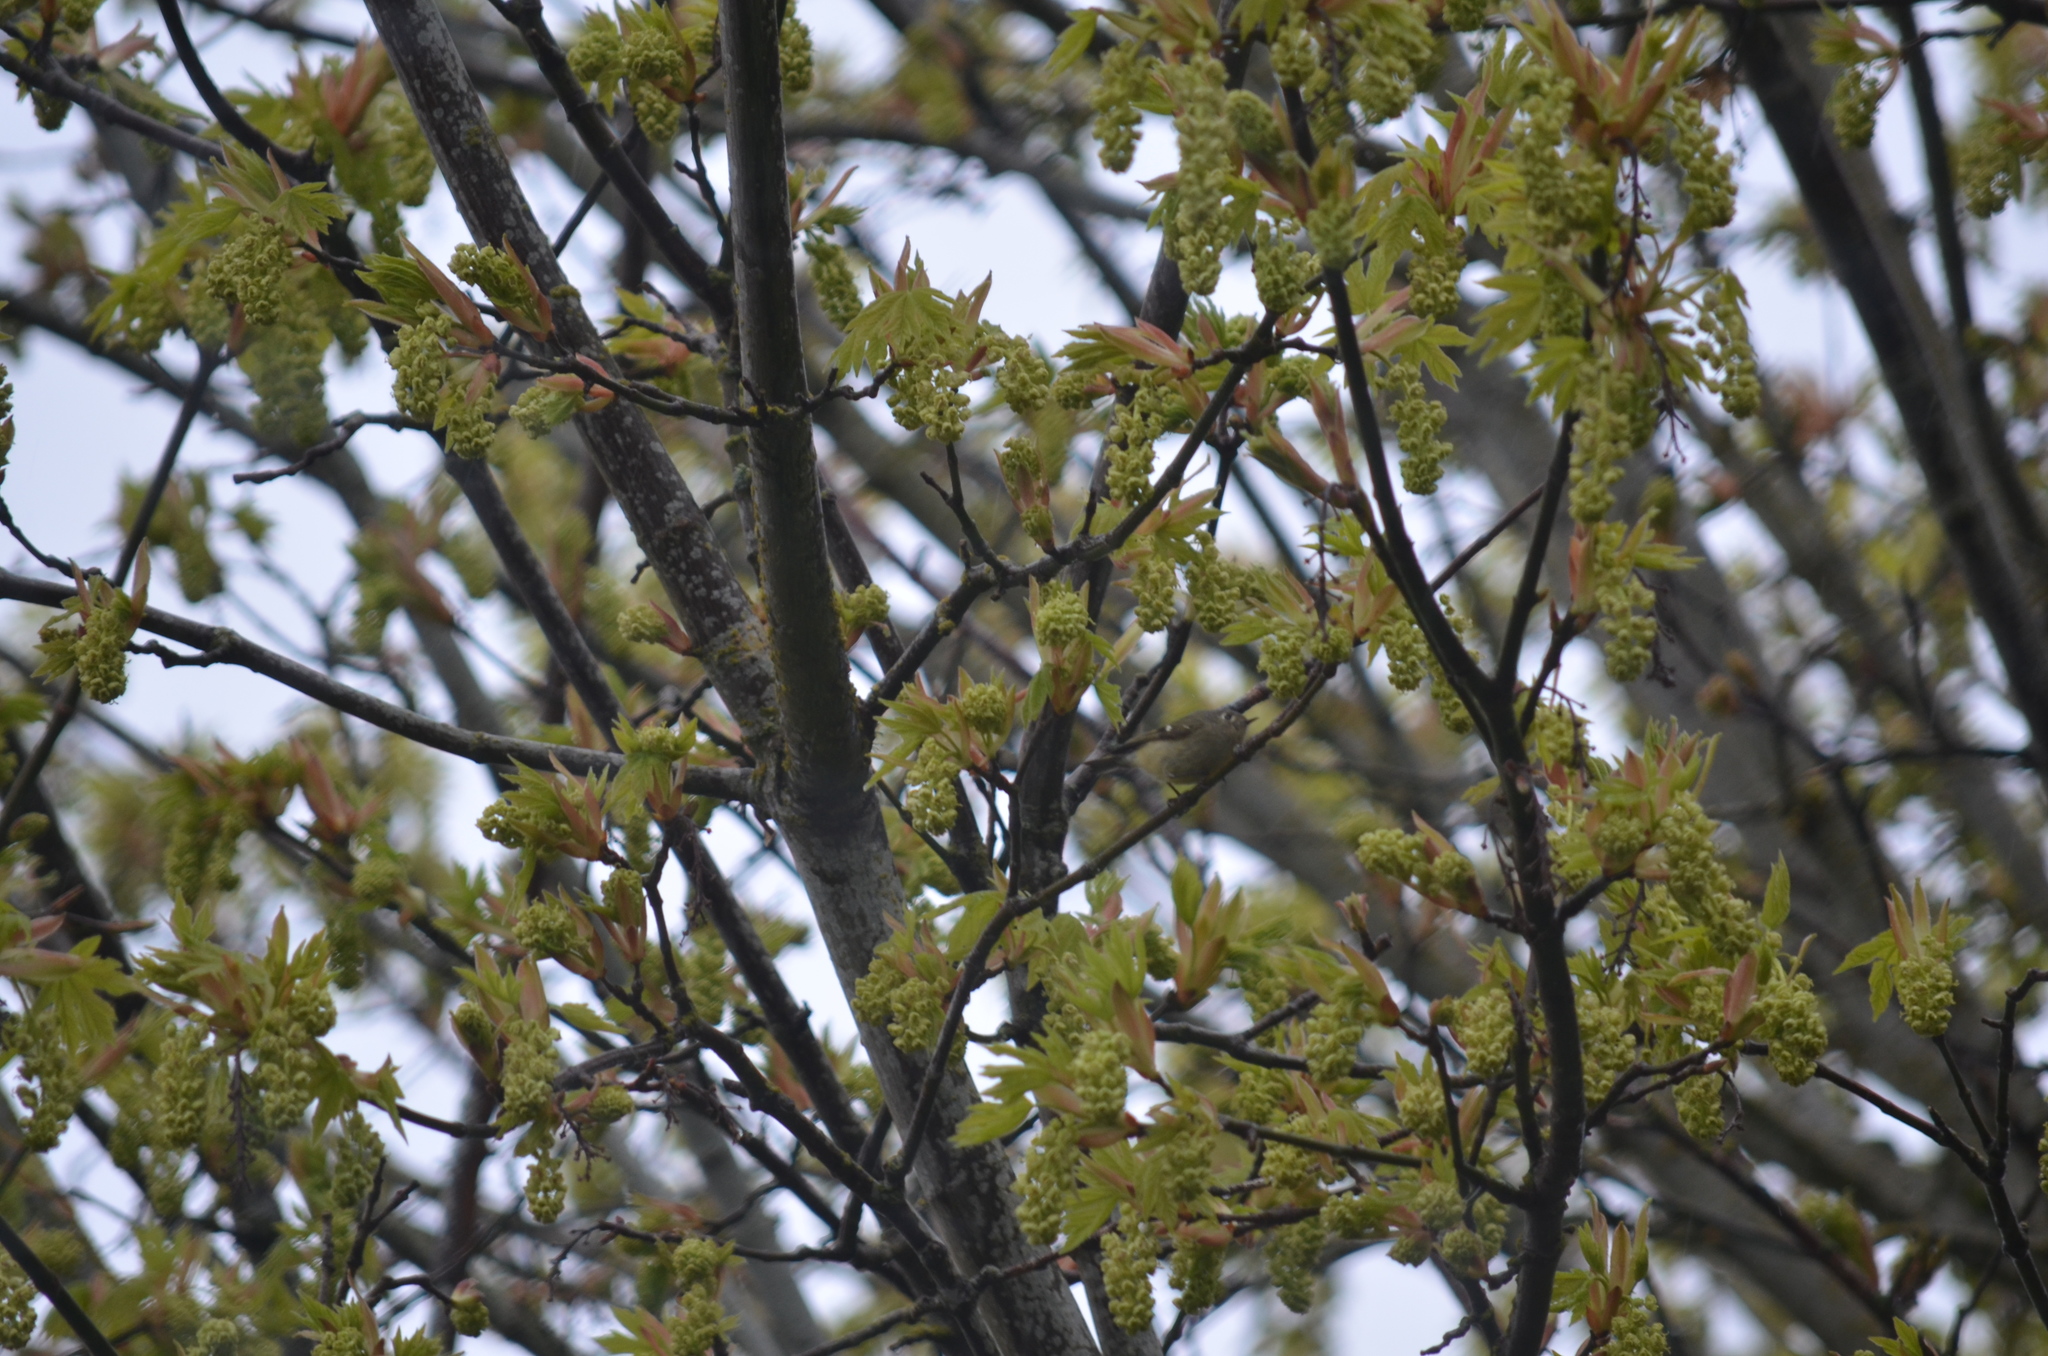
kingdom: Animalia
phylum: Chordata
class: Aves
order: Passeriformes
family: Regulidae
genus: Regulus
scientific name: Regulus calendula
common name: Ruby-crowned kinglet
